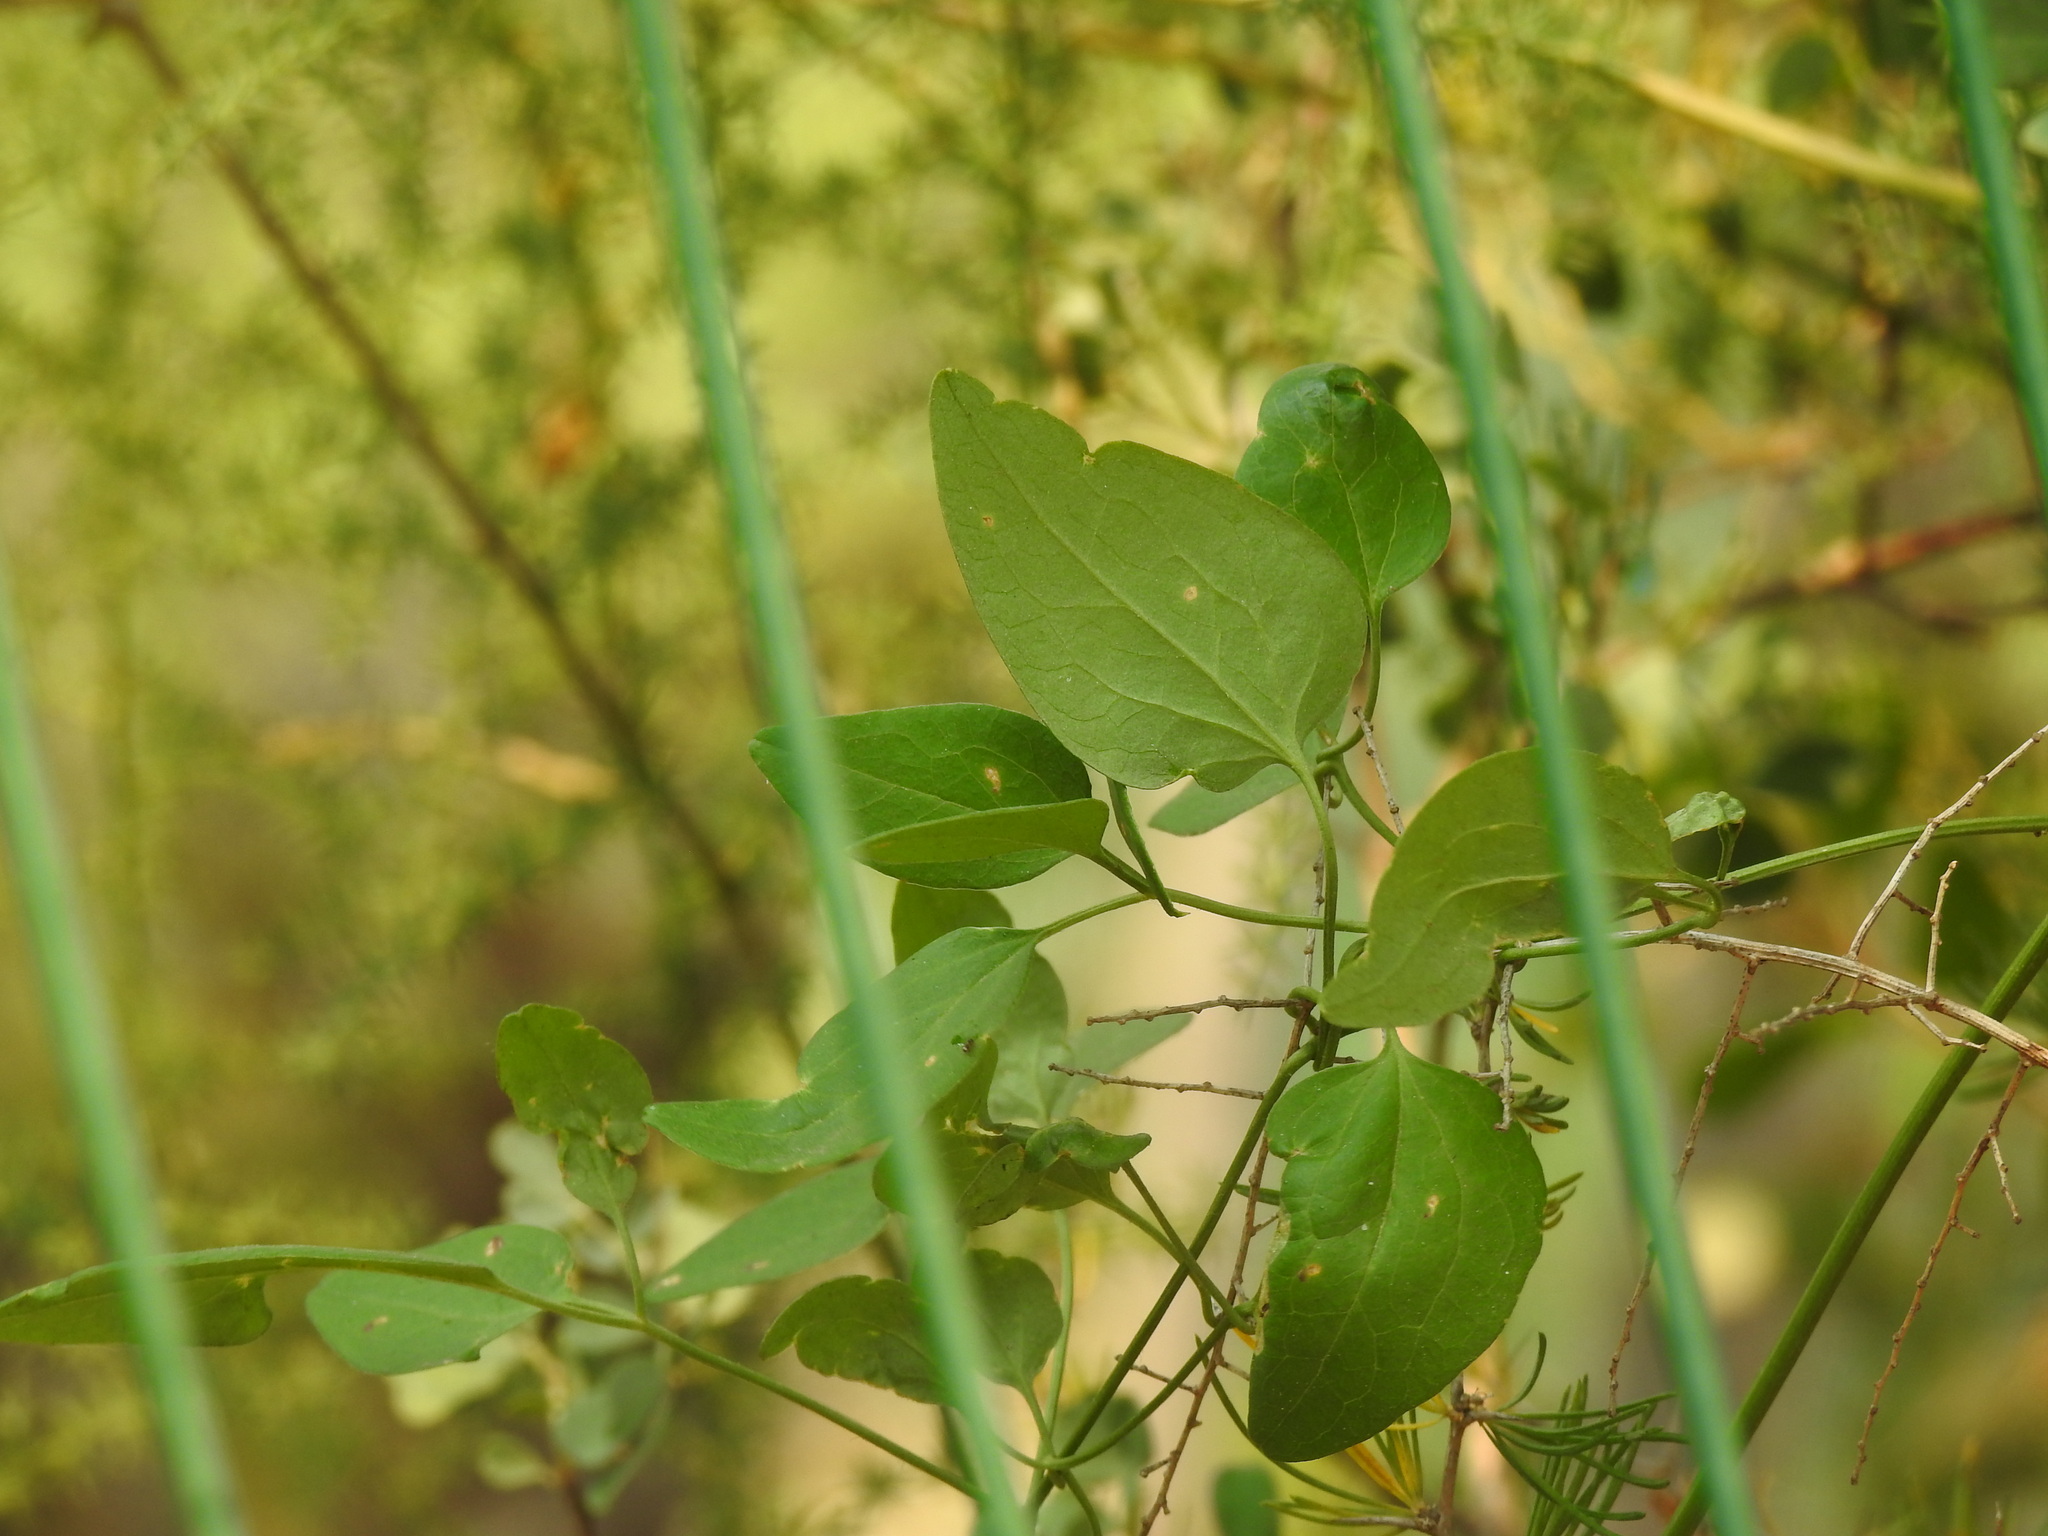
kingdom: Plantae
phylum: Tracheophyta
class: Magnoliopsida
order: Ranunculales
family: Ranunculaceae
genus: Clematis
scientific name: Clematis flammula
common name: Virgin's-bower
